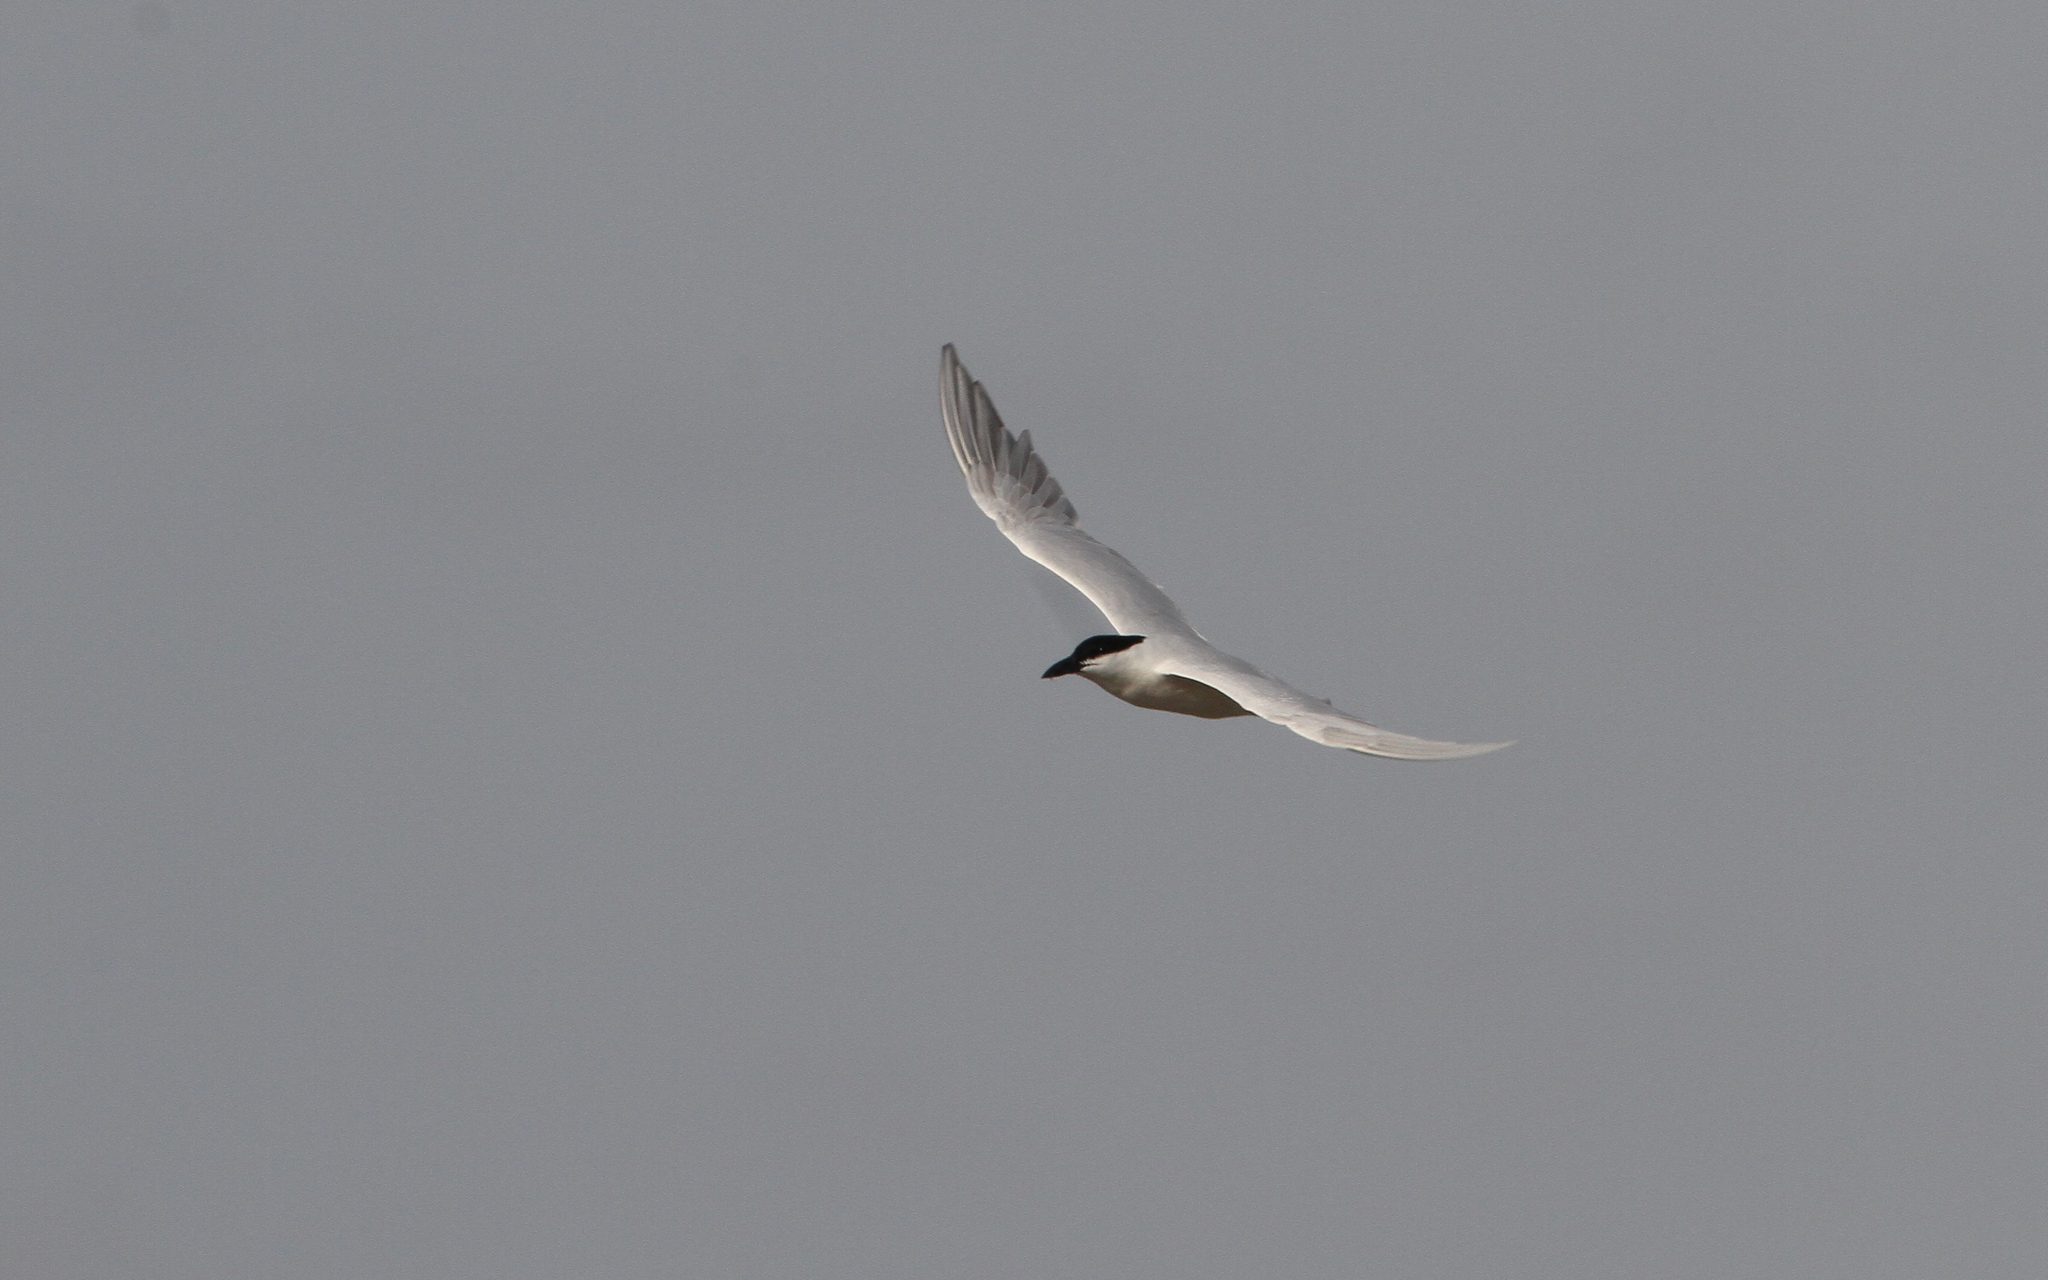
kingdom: Animalia
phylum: Chordata
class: Aves
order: Charadriiformes
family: Laridae
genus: Gelochelidon
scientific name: Gelochelidon macrotarsa
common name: Australian tern
